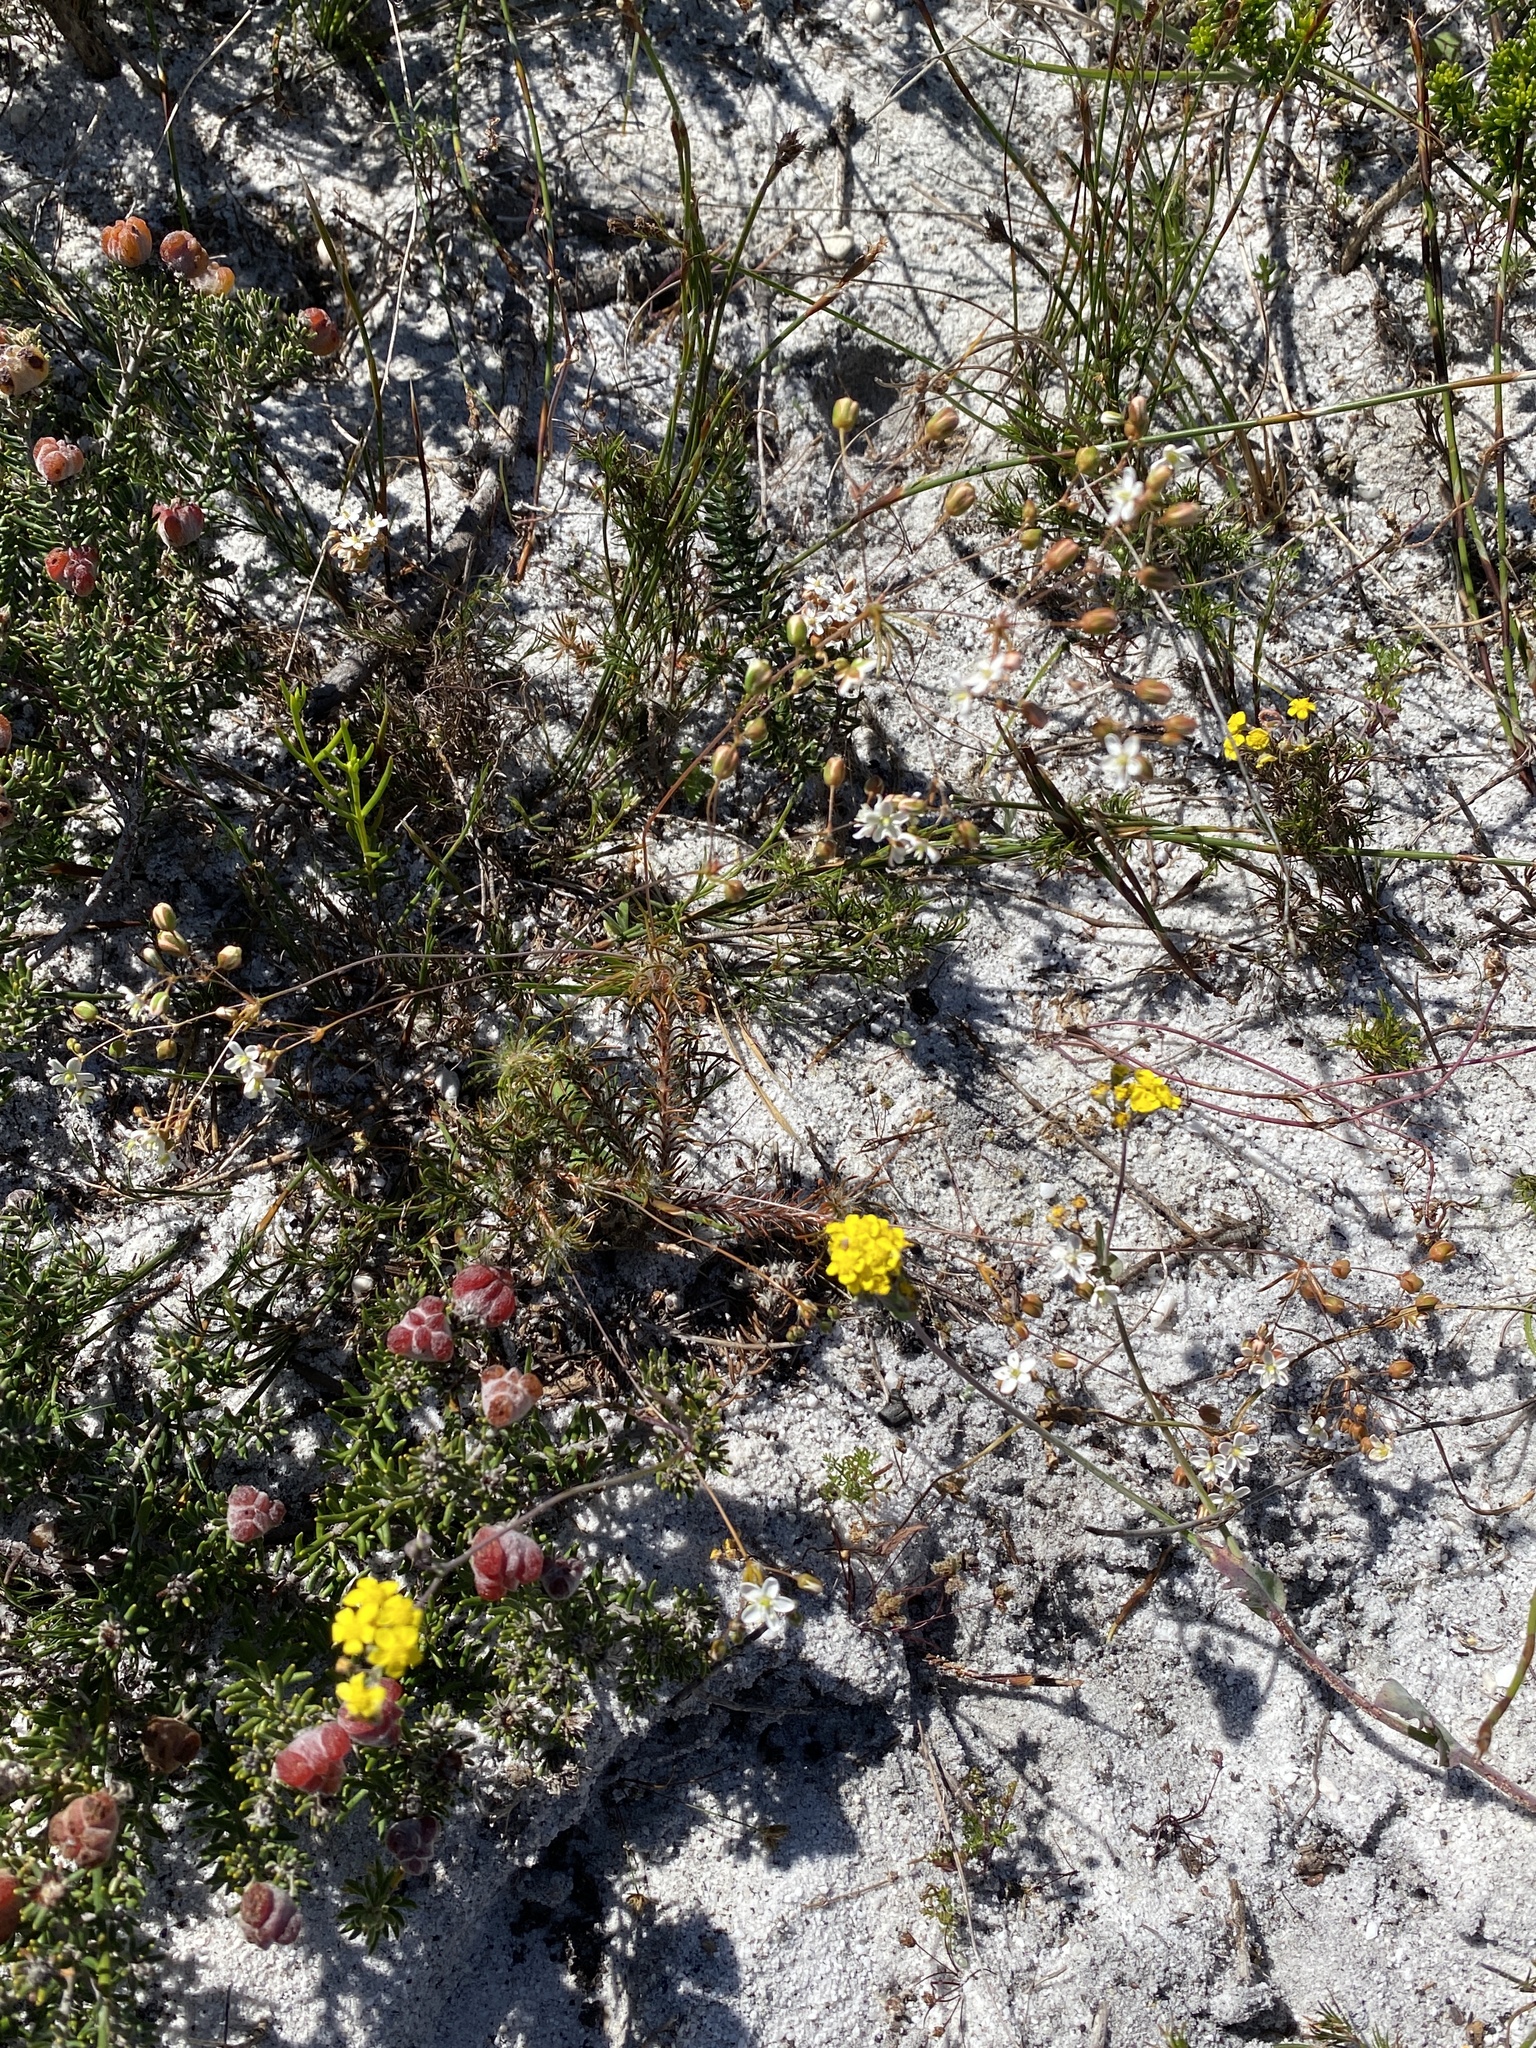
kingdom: Plantae
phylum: Tracheophyta
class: Magnoliopsida
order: Caryophyllales
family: Molluginaceae
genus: Pharnaceum
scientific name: Pharnaceum elongatum
